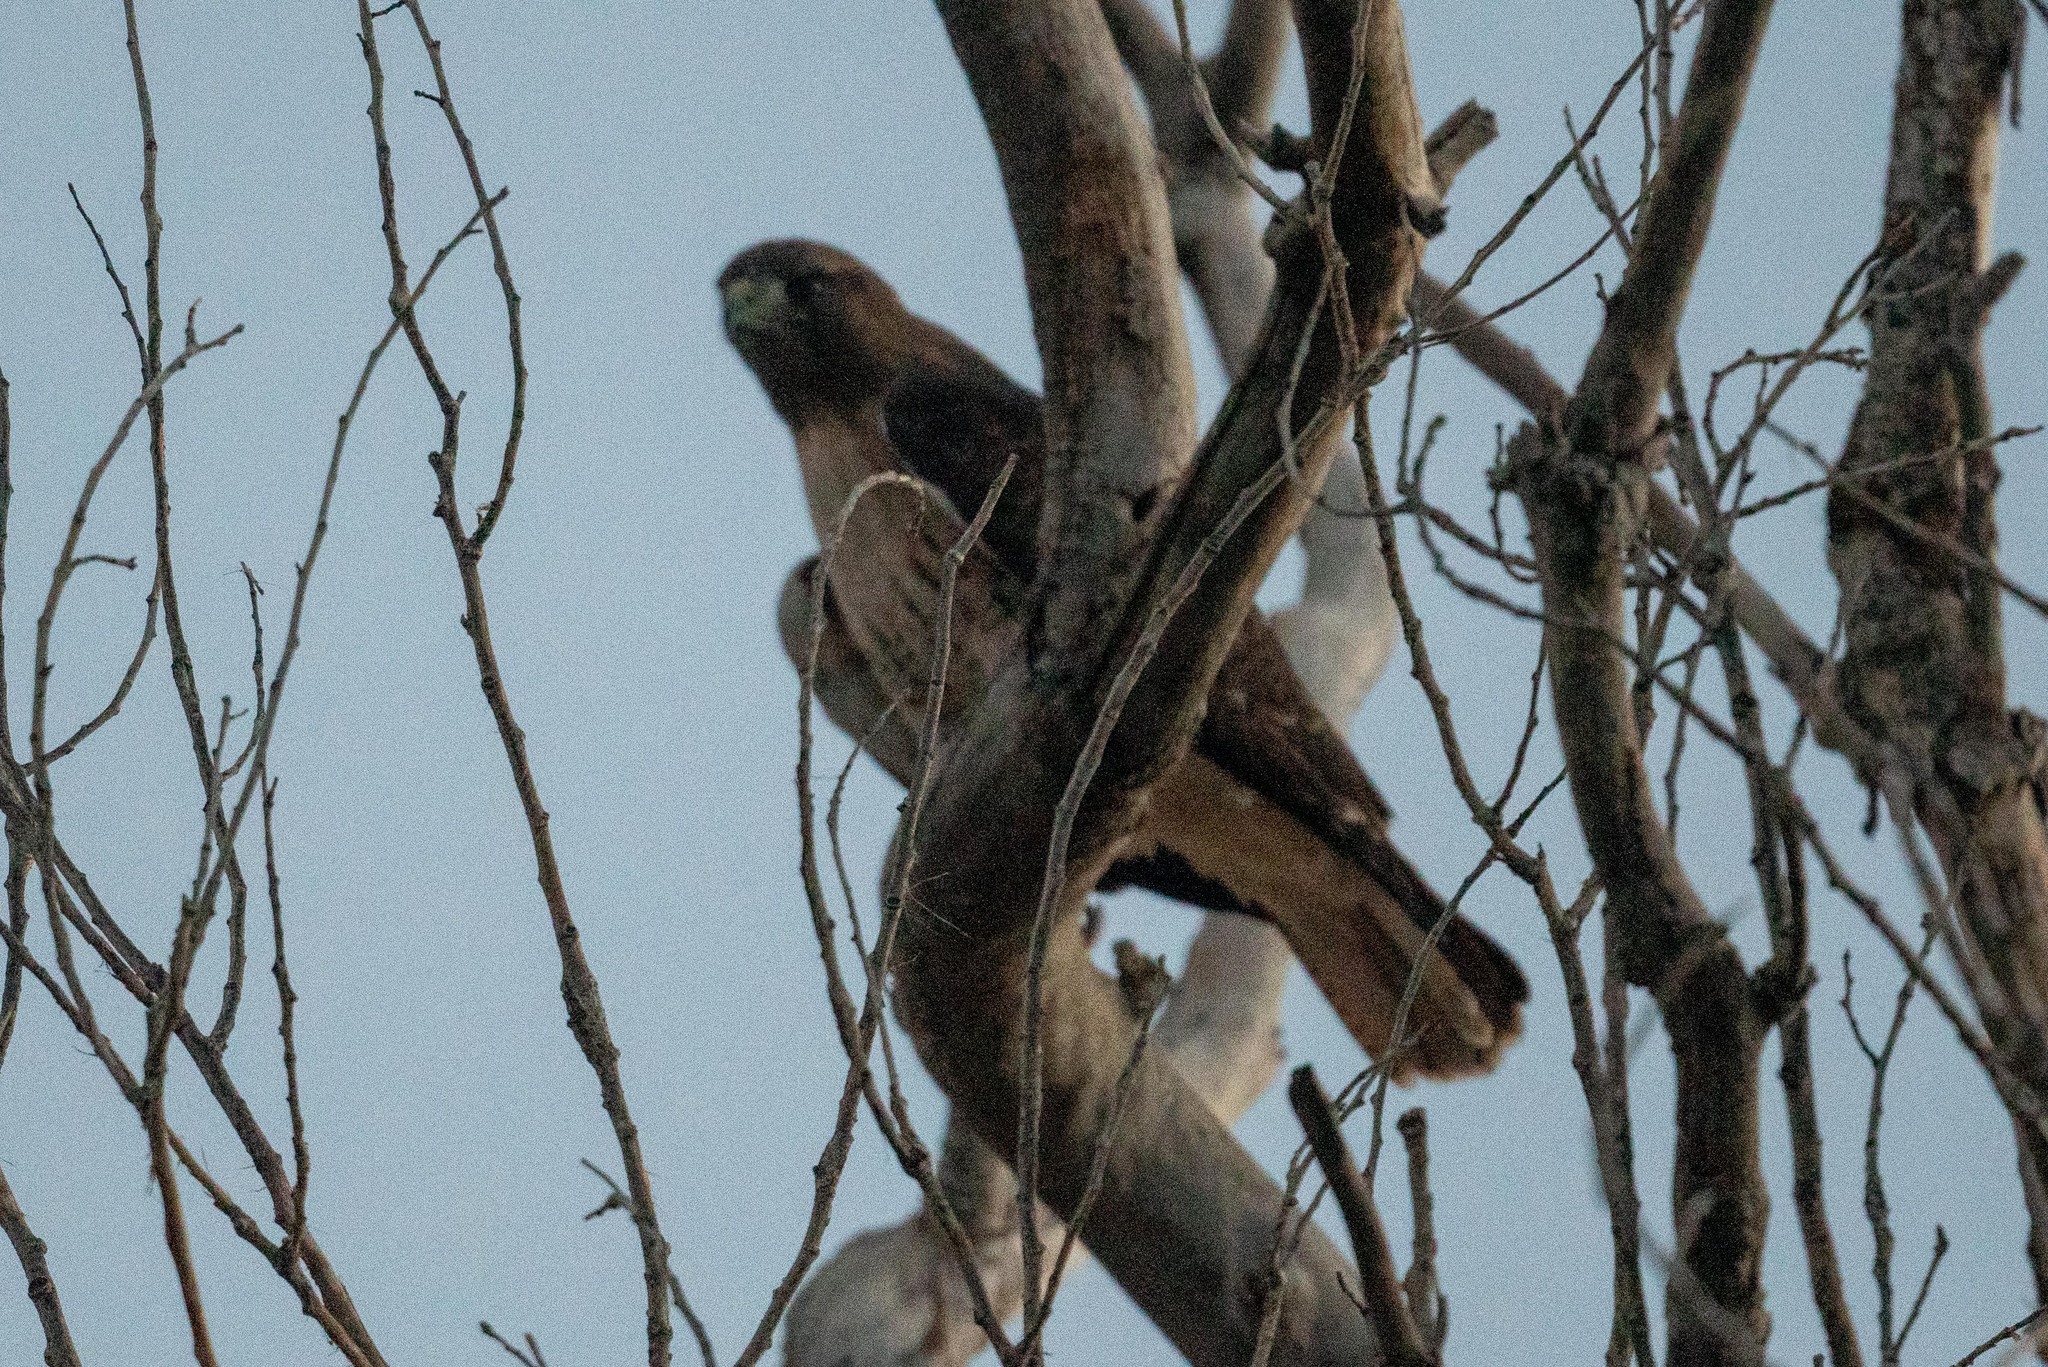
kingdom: Animalia
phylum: Chordata
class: Aves
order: Accipitriformes
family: Accipitridae
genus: Buteo
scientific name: Buteo jamaicensis
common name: Red-tailed hawk
